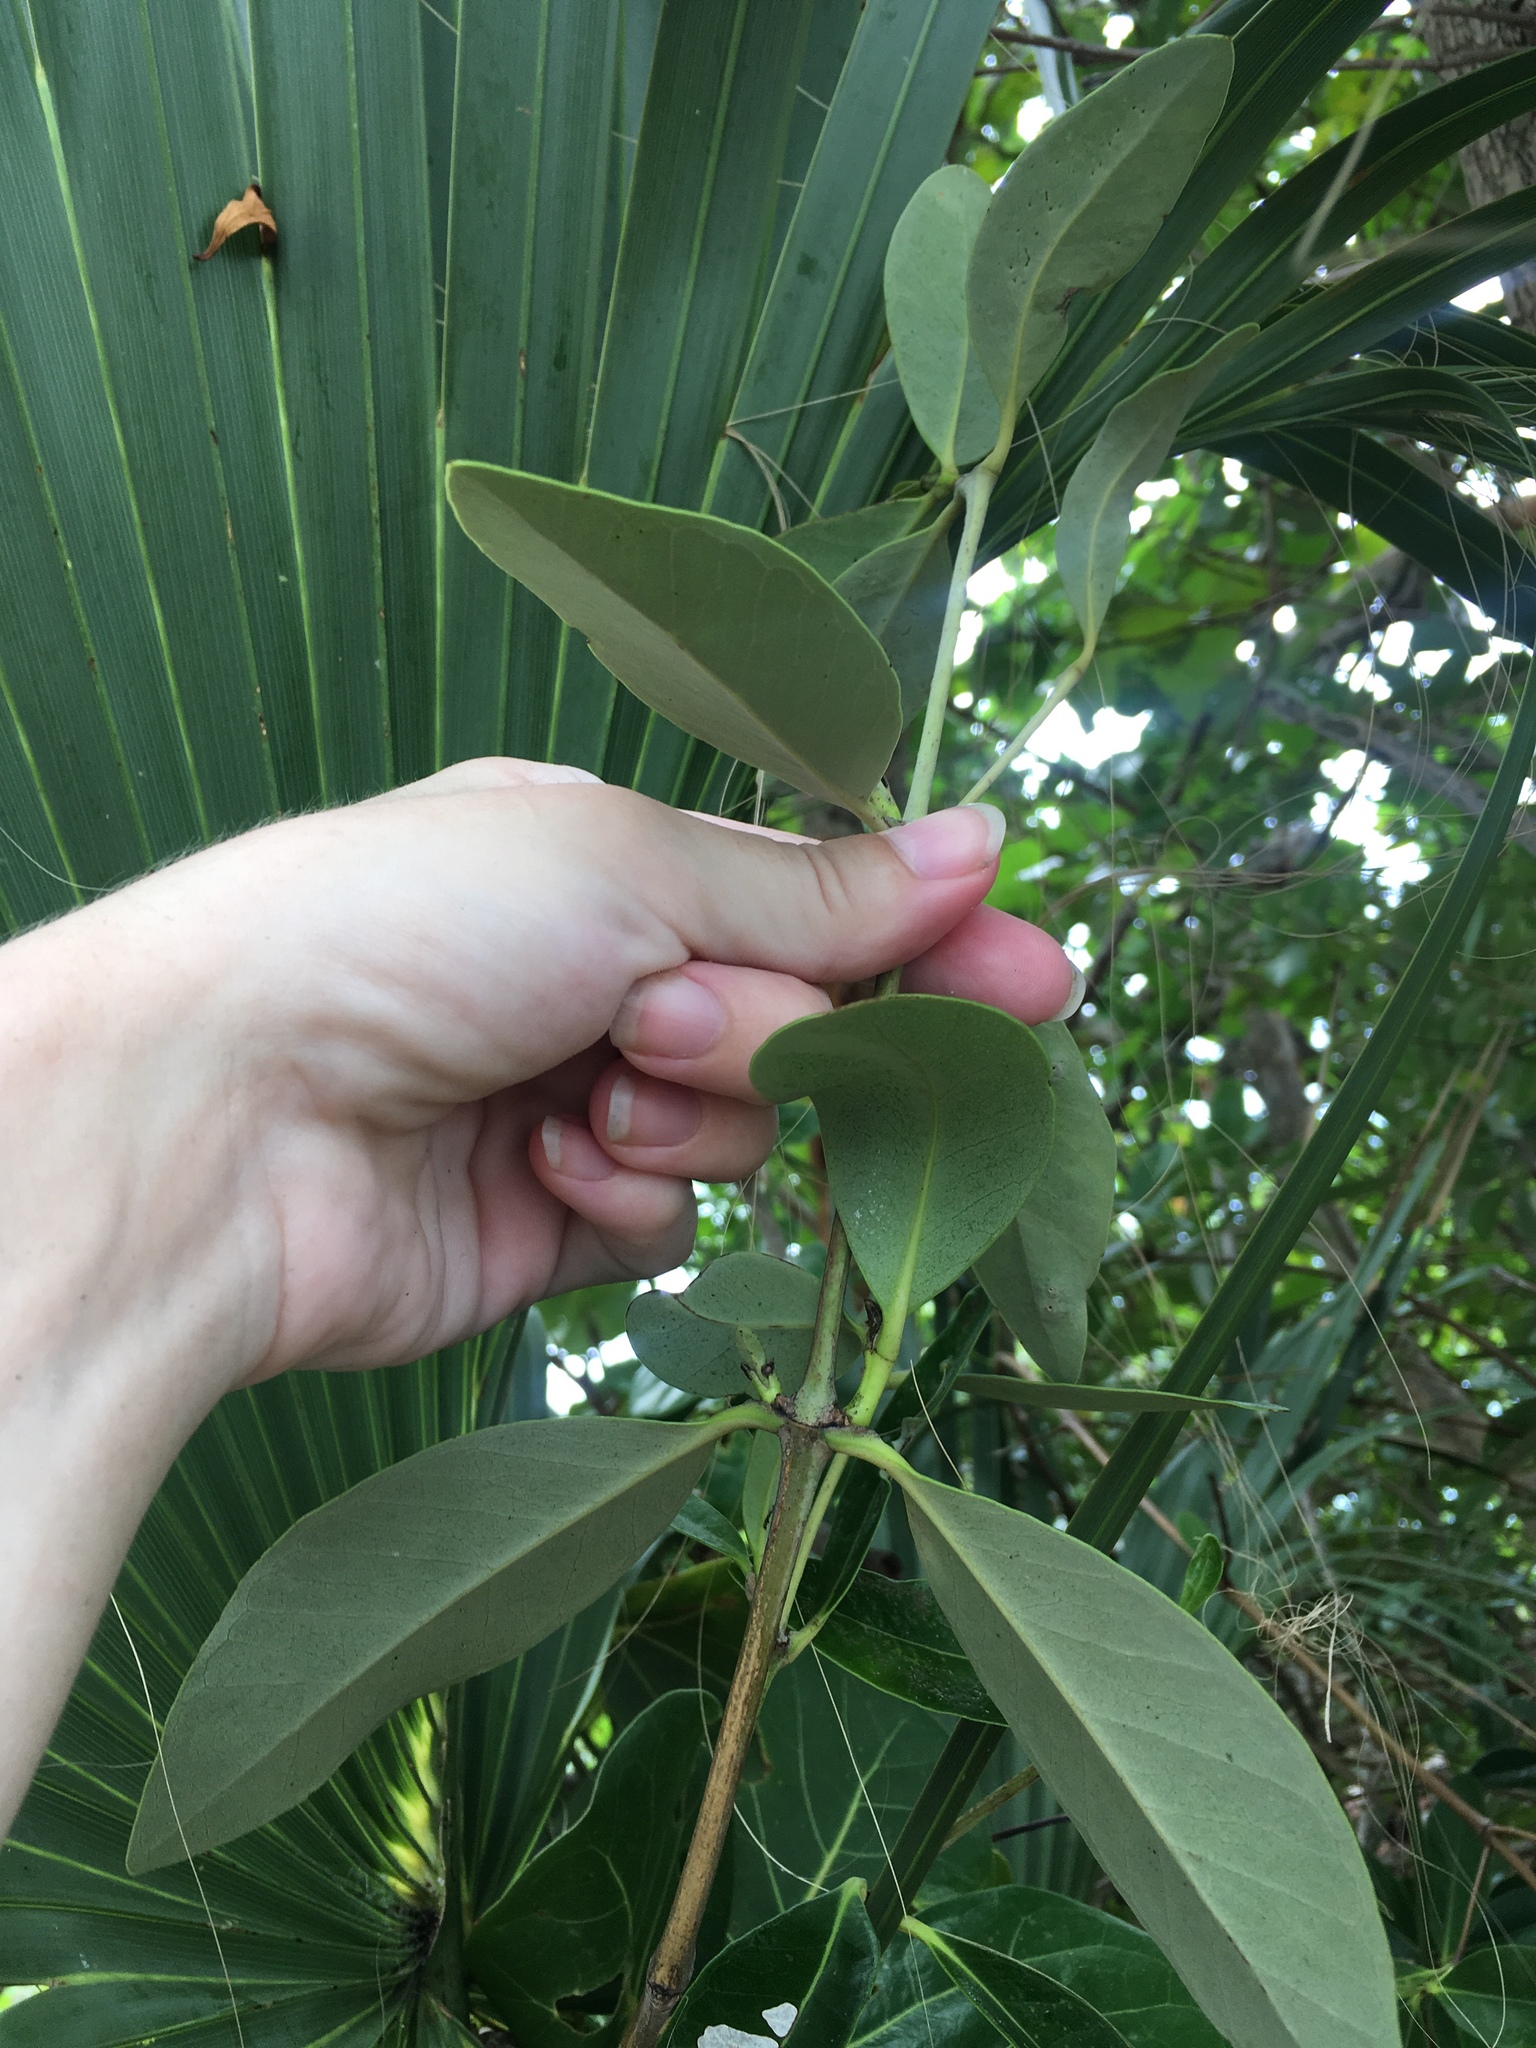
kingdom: Plantae
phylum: Tracheophyta
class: Magnoliopsida
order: Lamiales
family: Acanthaceae
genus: Avicennia
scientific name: Avicennia germinans
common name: Black mangrove
